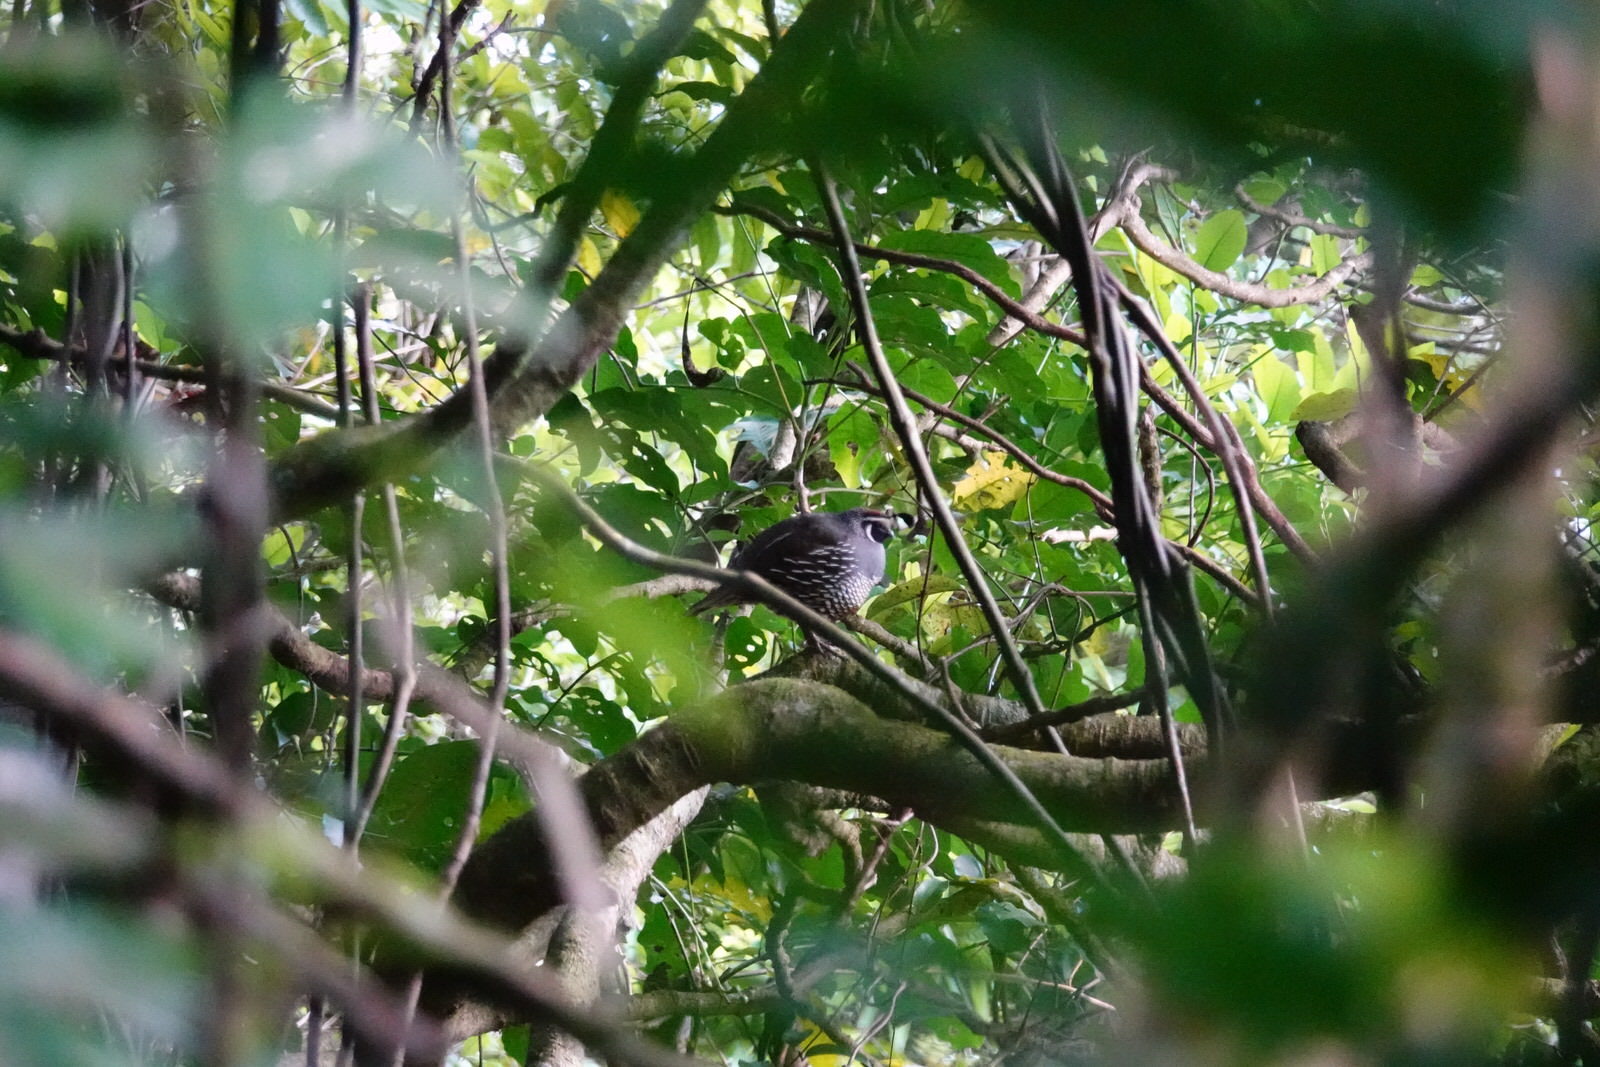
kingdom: Animalia
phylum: Chordata
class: Aves
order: Galliformes
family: Odontophoridae
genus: Callipepla
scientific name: Callipepla californica
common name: California quail
